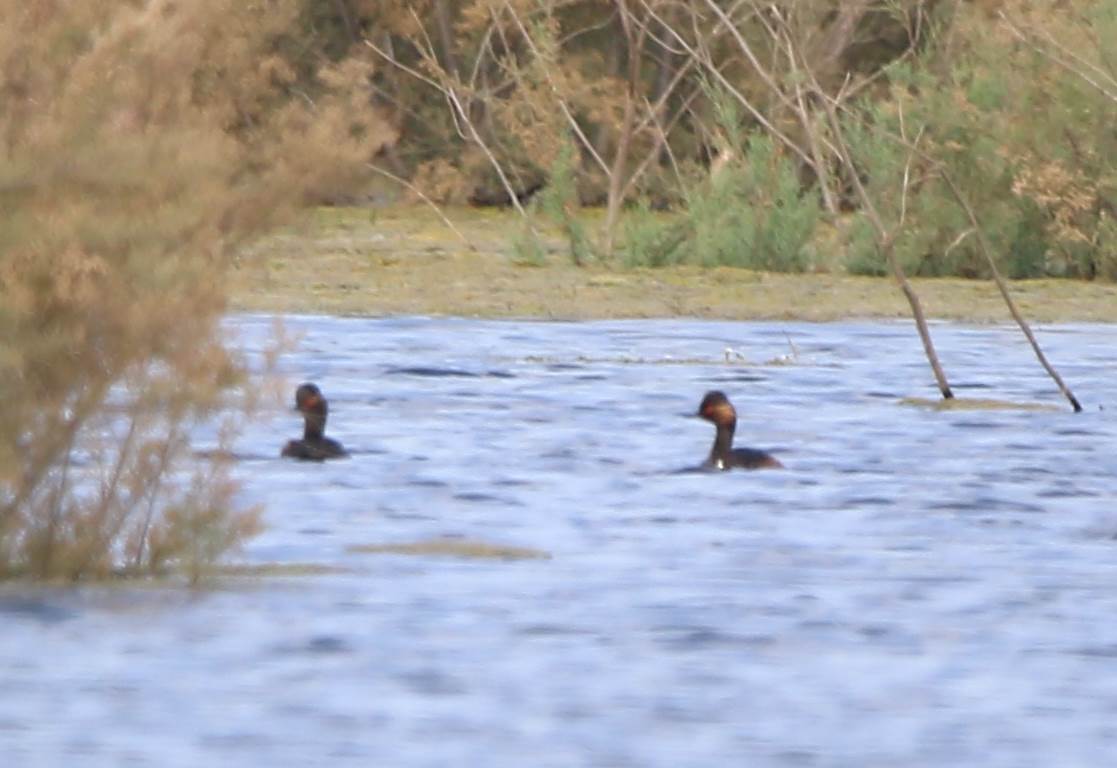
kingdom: Animalia
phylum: Chordata
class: Aves
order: Podicipediformes
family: Podicipedidae
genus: Podiceps
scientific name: Podiceps nigricollis
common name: Black-necked grebe
